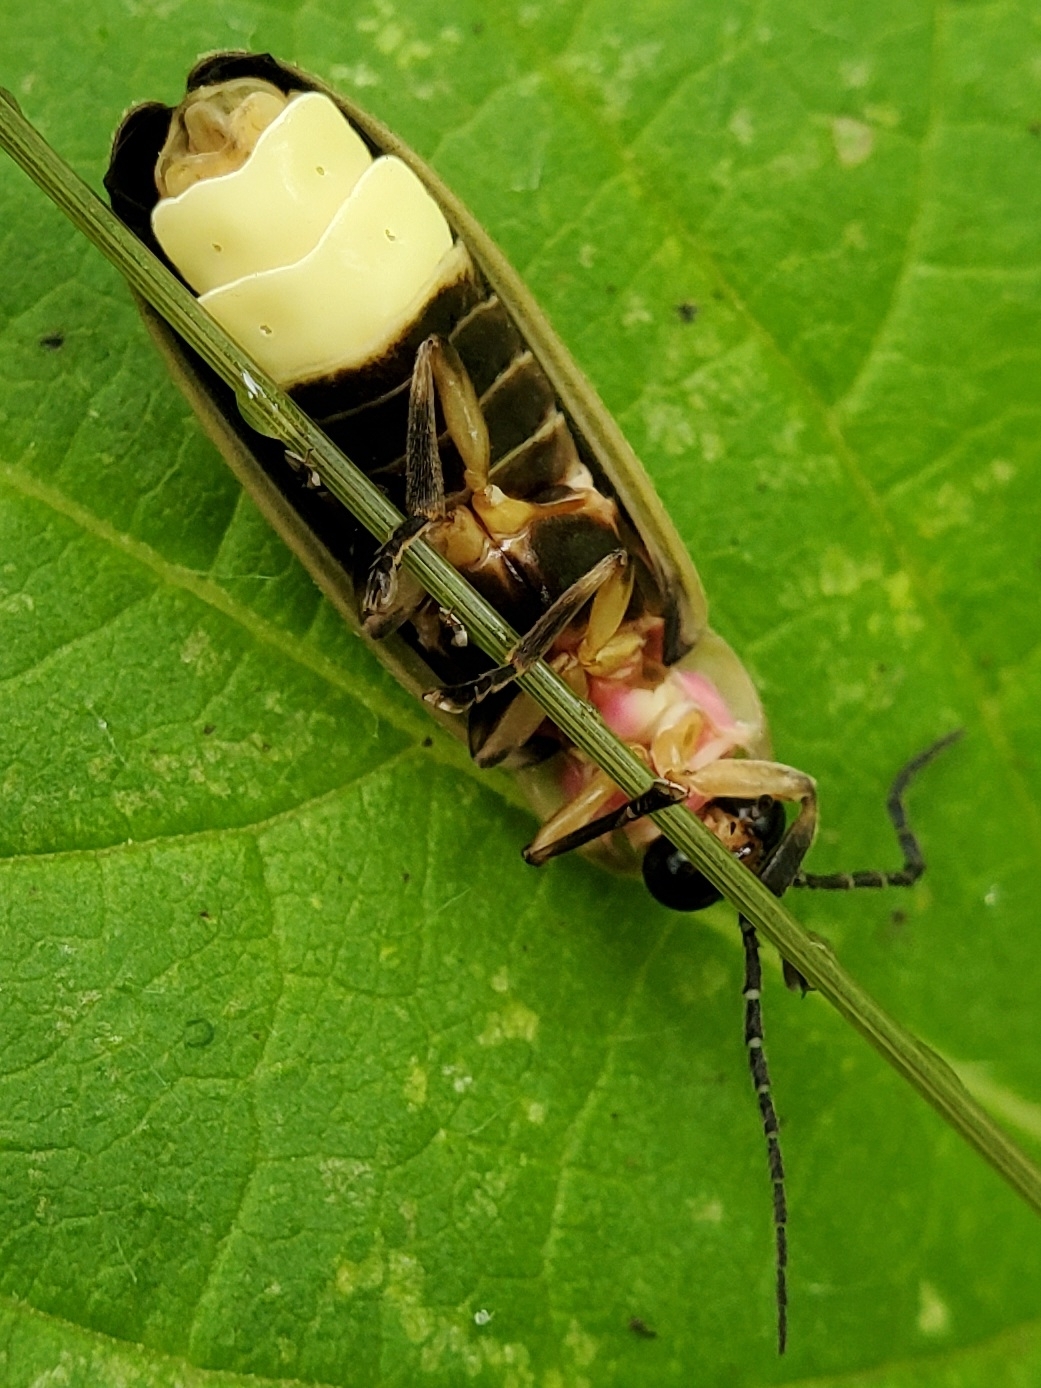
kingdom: Animalia
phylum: Arthropoda
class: Insecta
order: Coleoptera
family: Lampyridae
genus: Photinus
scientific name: Photinus pyralis
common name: Big dipper firefly
